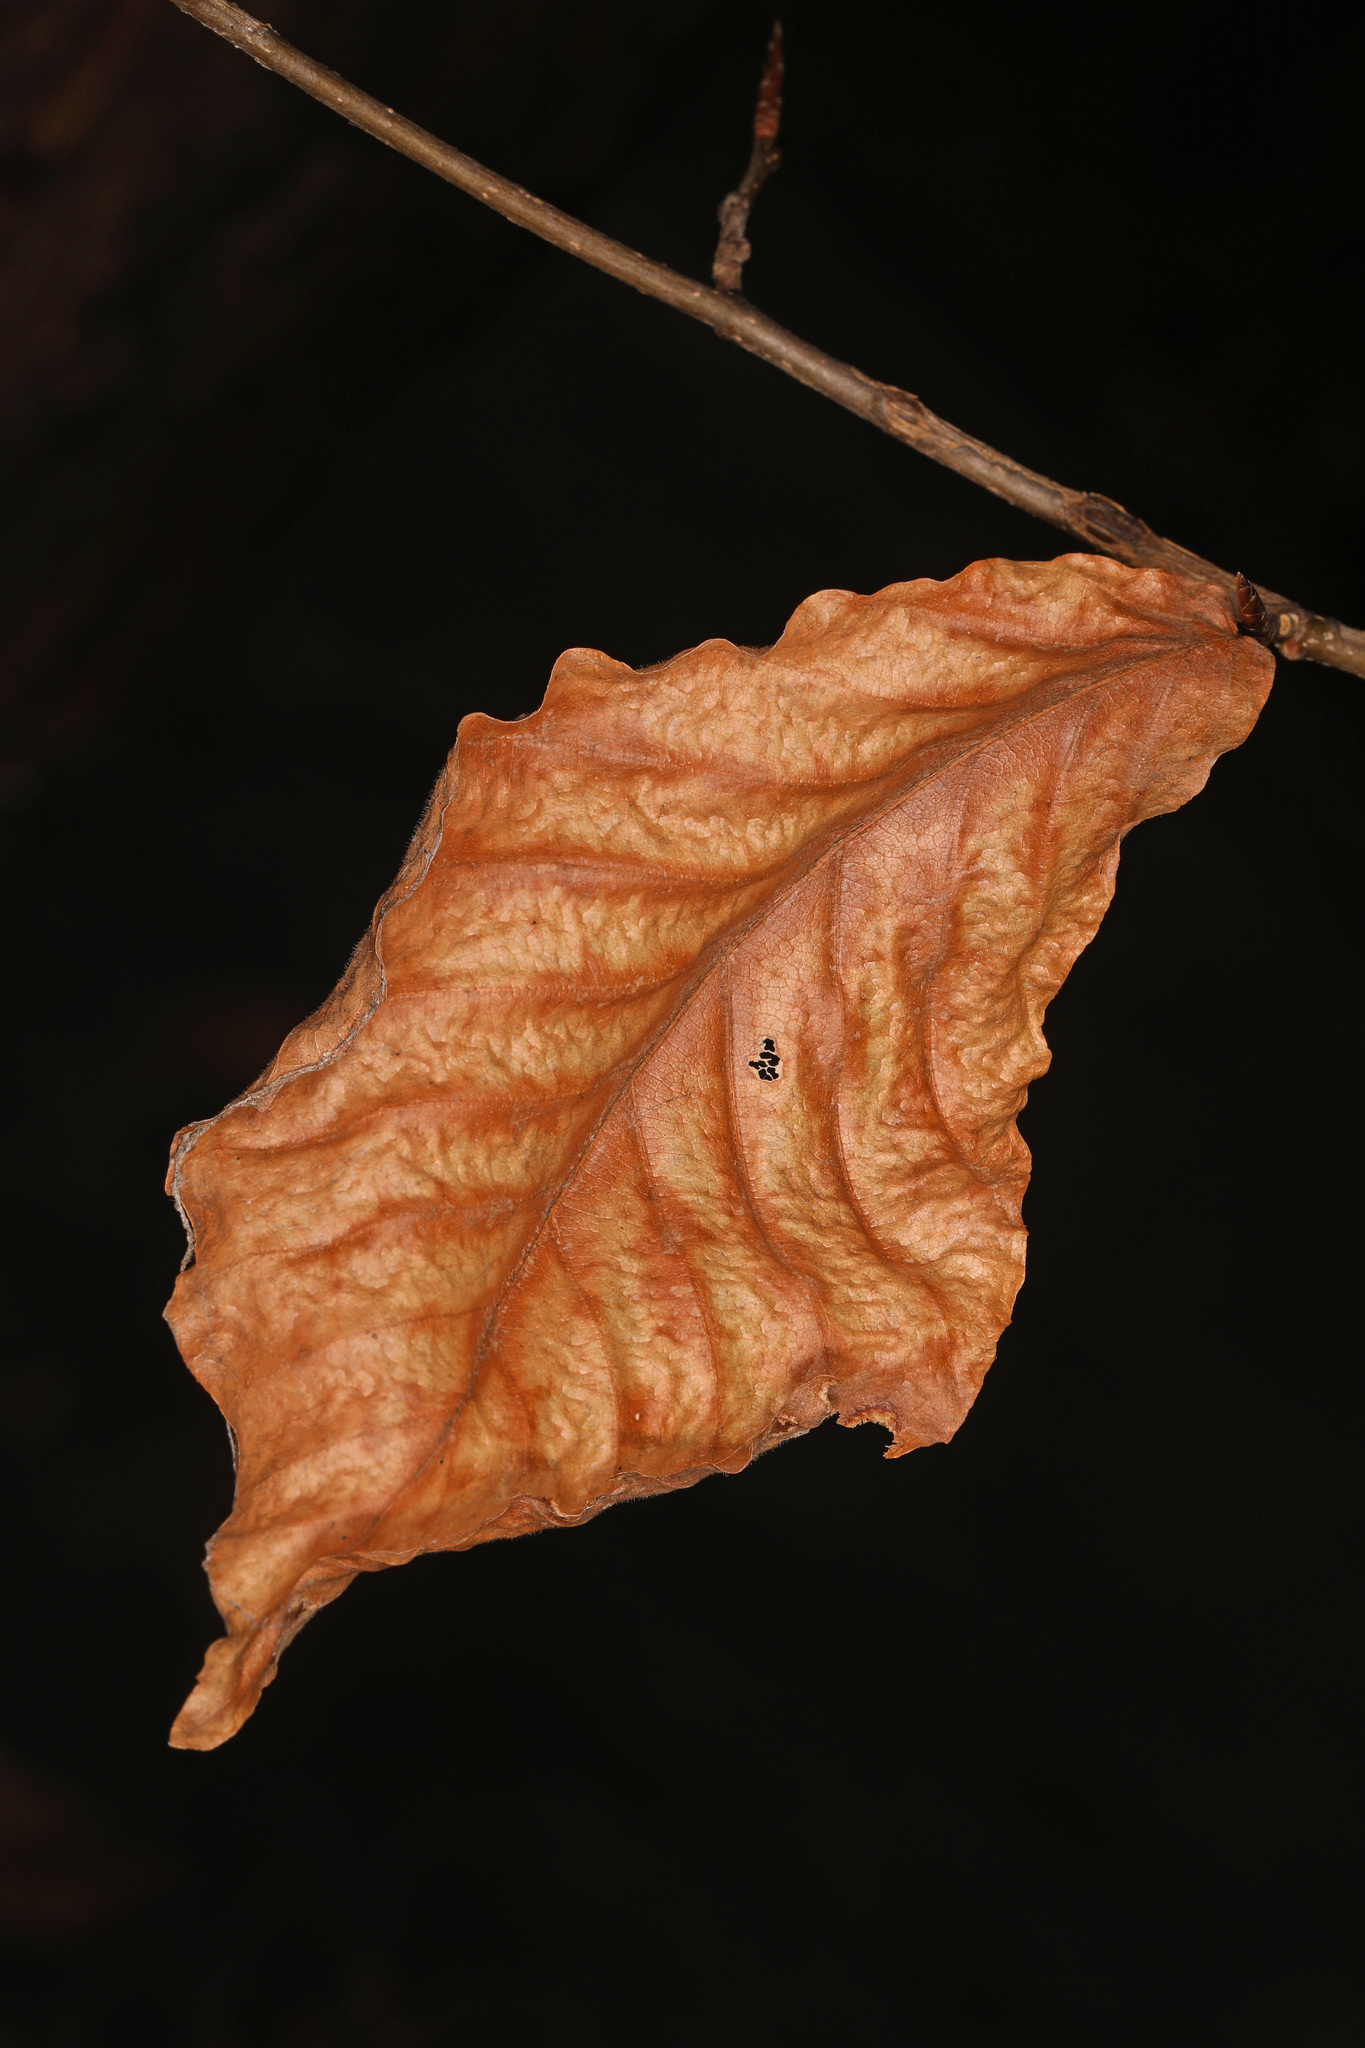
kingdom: Plantae
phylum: Tracheophyta
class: Magnoliopsida
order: Fagales
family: Fagaceae
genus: Fagus
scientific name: Fagus grandifolia
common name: American beech
